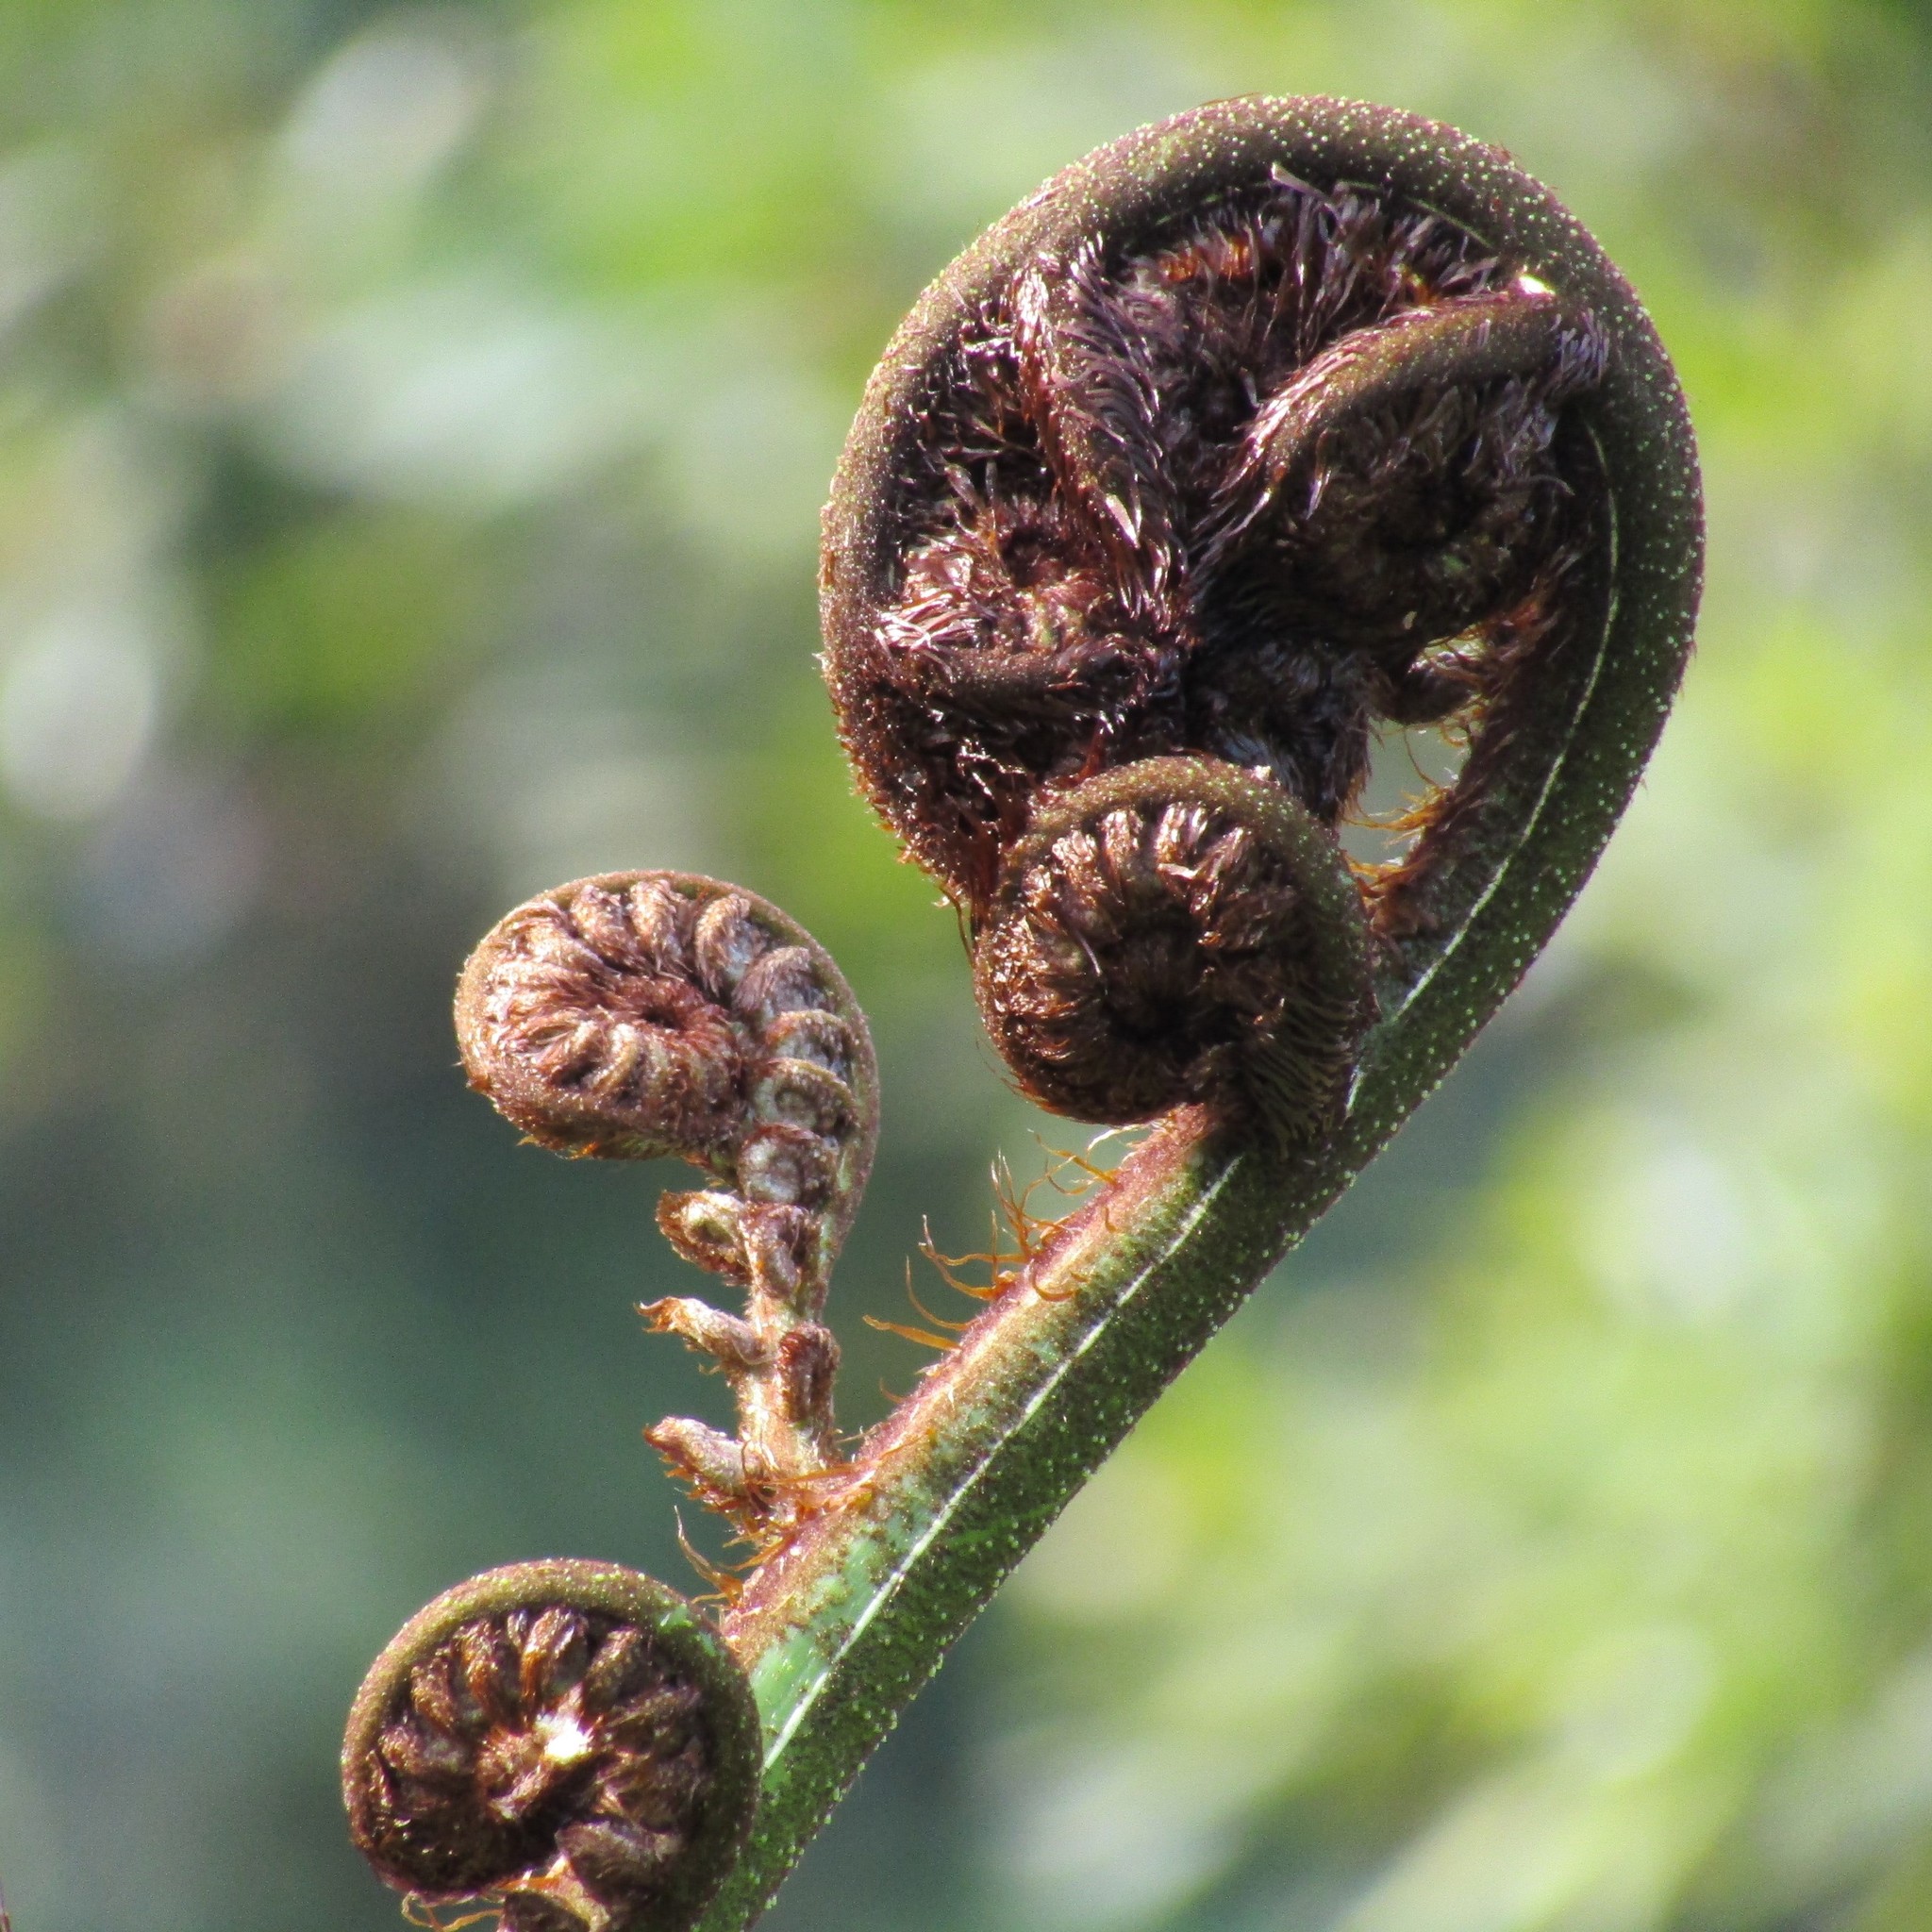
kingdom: Plantae
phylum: Tracheophyta
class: Polypodiopsida
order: Cyatheales
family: Cyatheaceae
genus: Sphaeropteris
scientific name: Sphaeropteris medullaris
